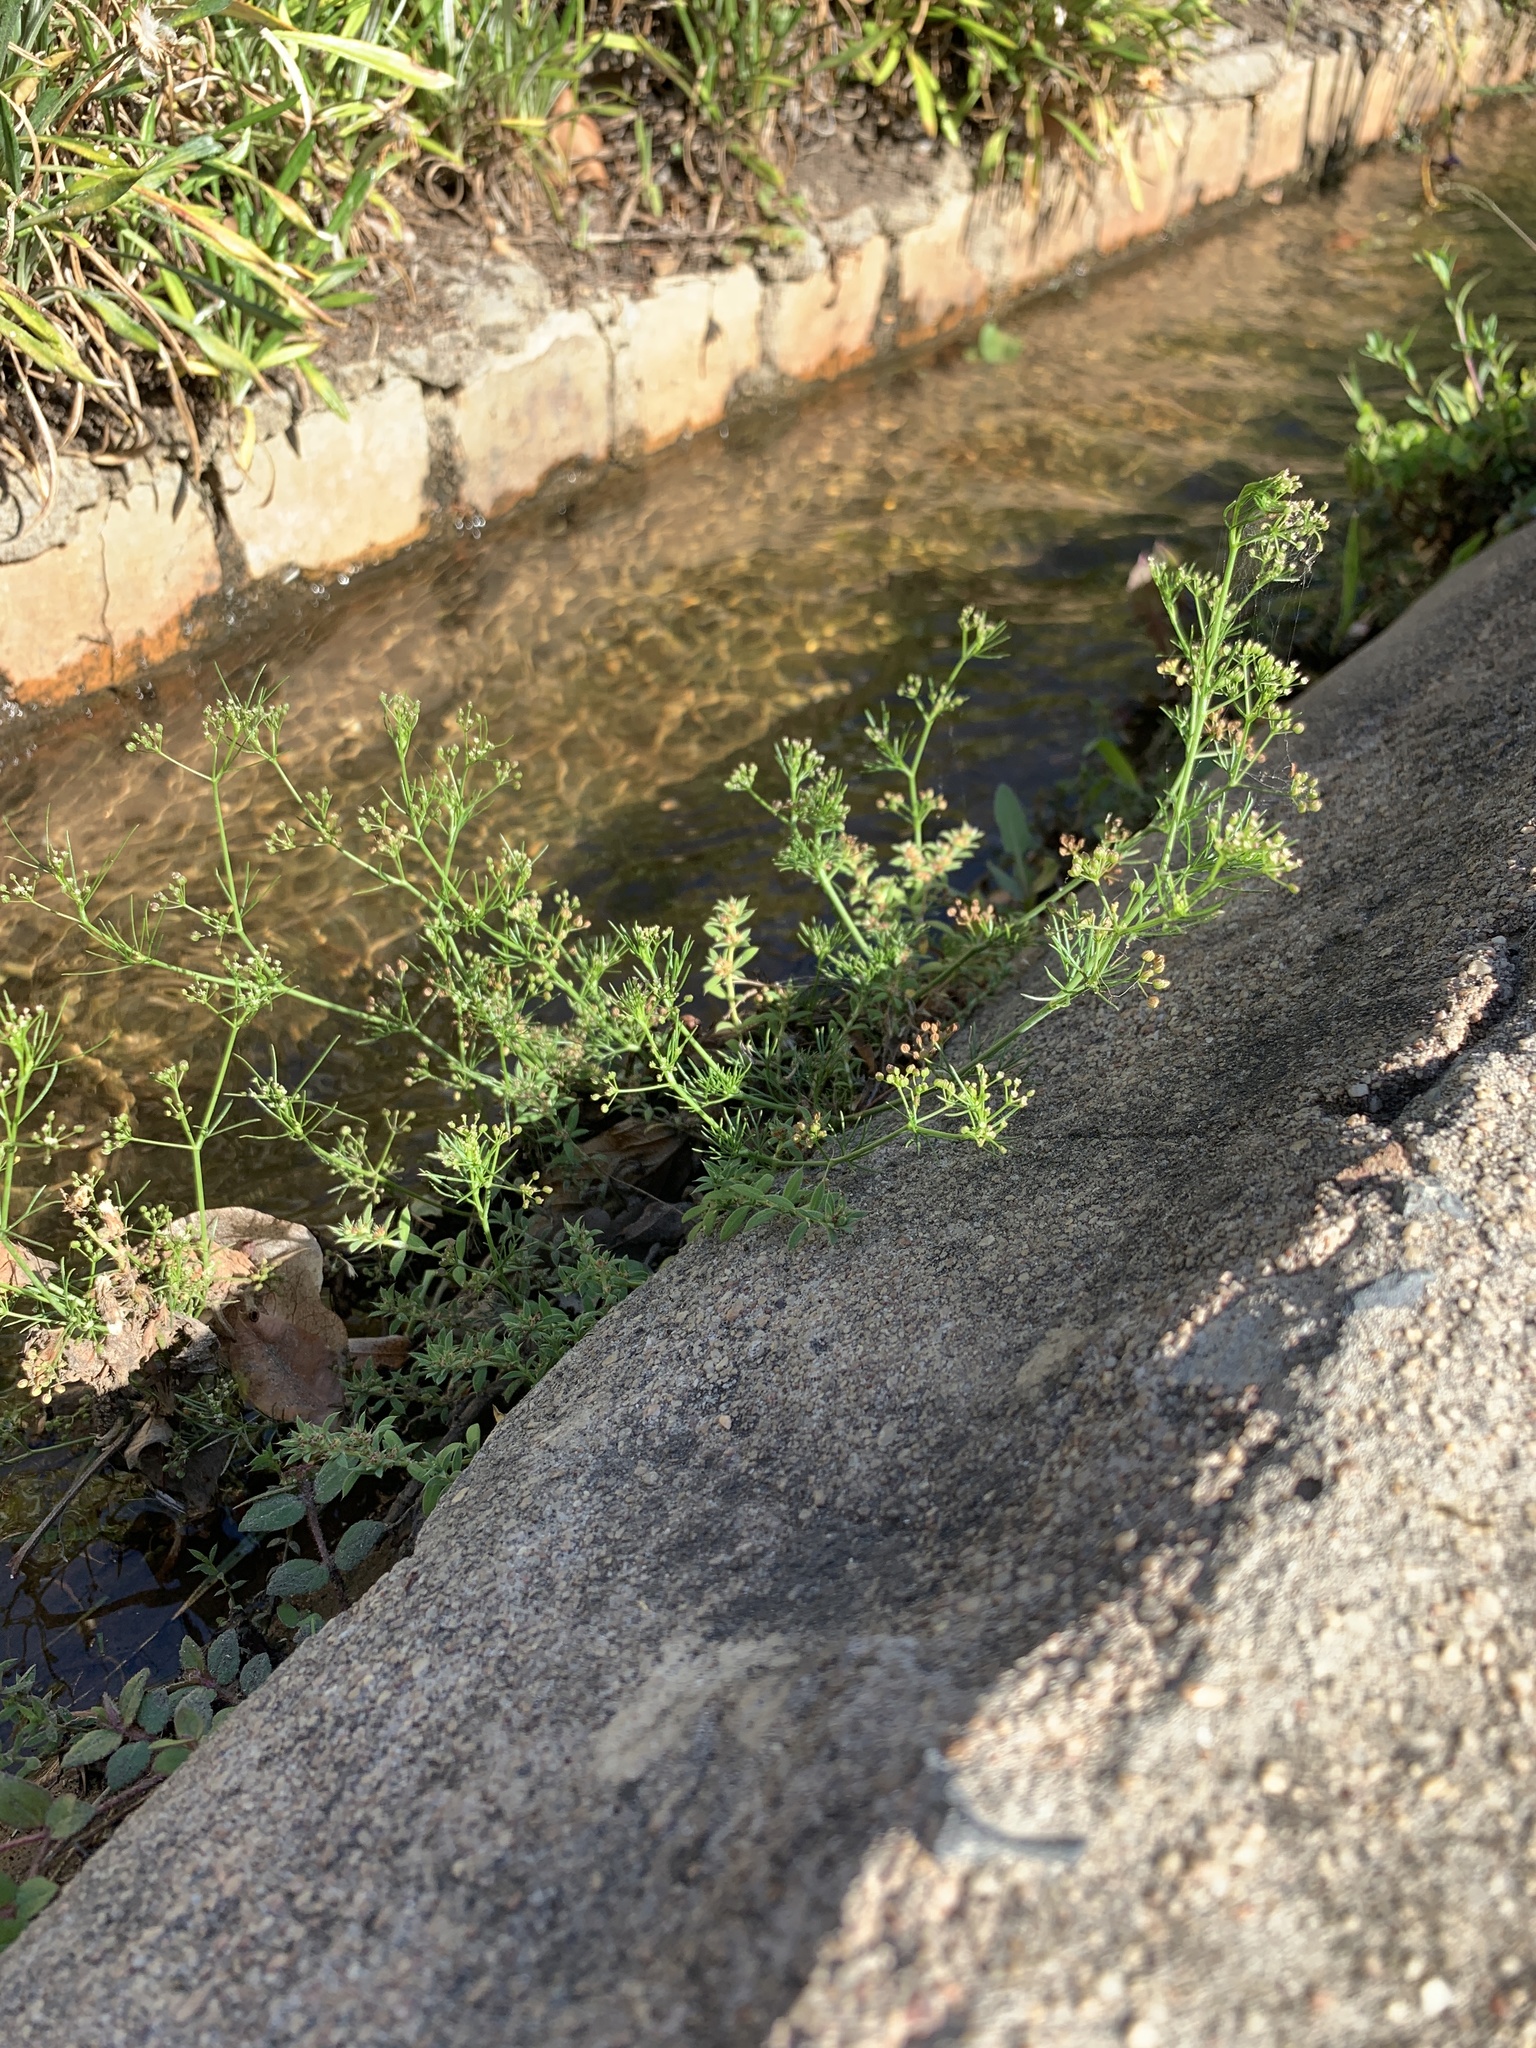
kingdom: Plantae
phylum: Tracheophyta
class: Magnoliopsida
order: Apiales
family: Apiaceae
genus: Cyclospermum
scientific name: Cyclospermum leptophyllum
